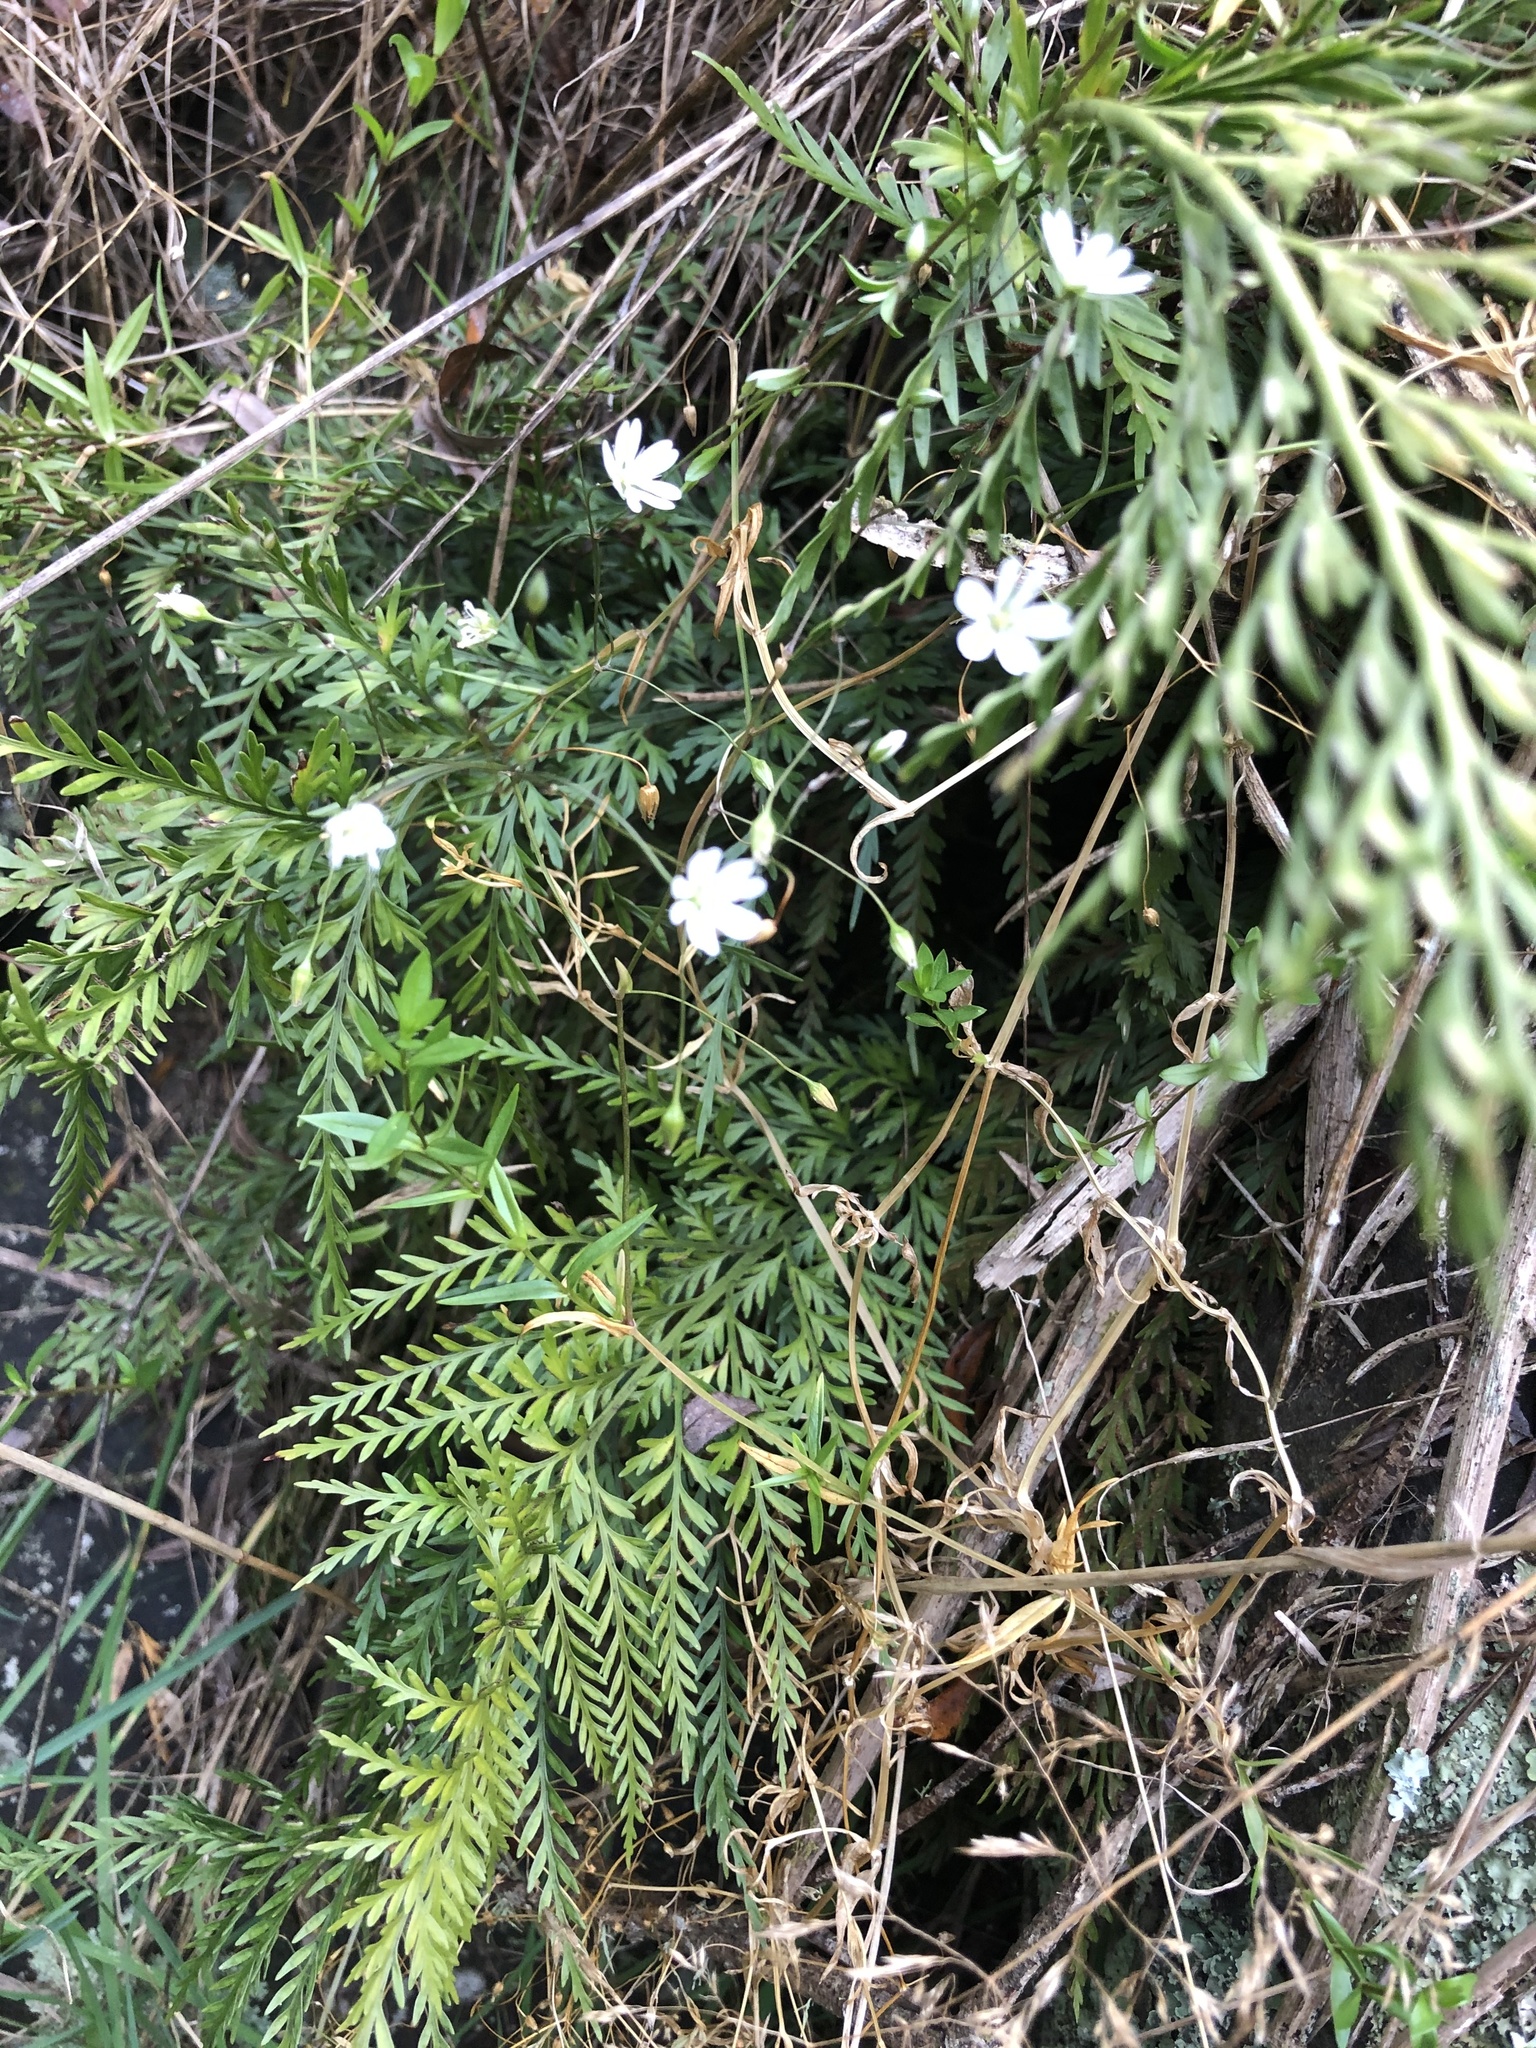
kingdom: Plantae
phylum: Tracheophyta
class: Magnoliopsida
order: Caryophyllales
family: Caryophyllaceae
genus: Stellaria
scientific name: Stellaria graminea
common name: Grass-like starwort
